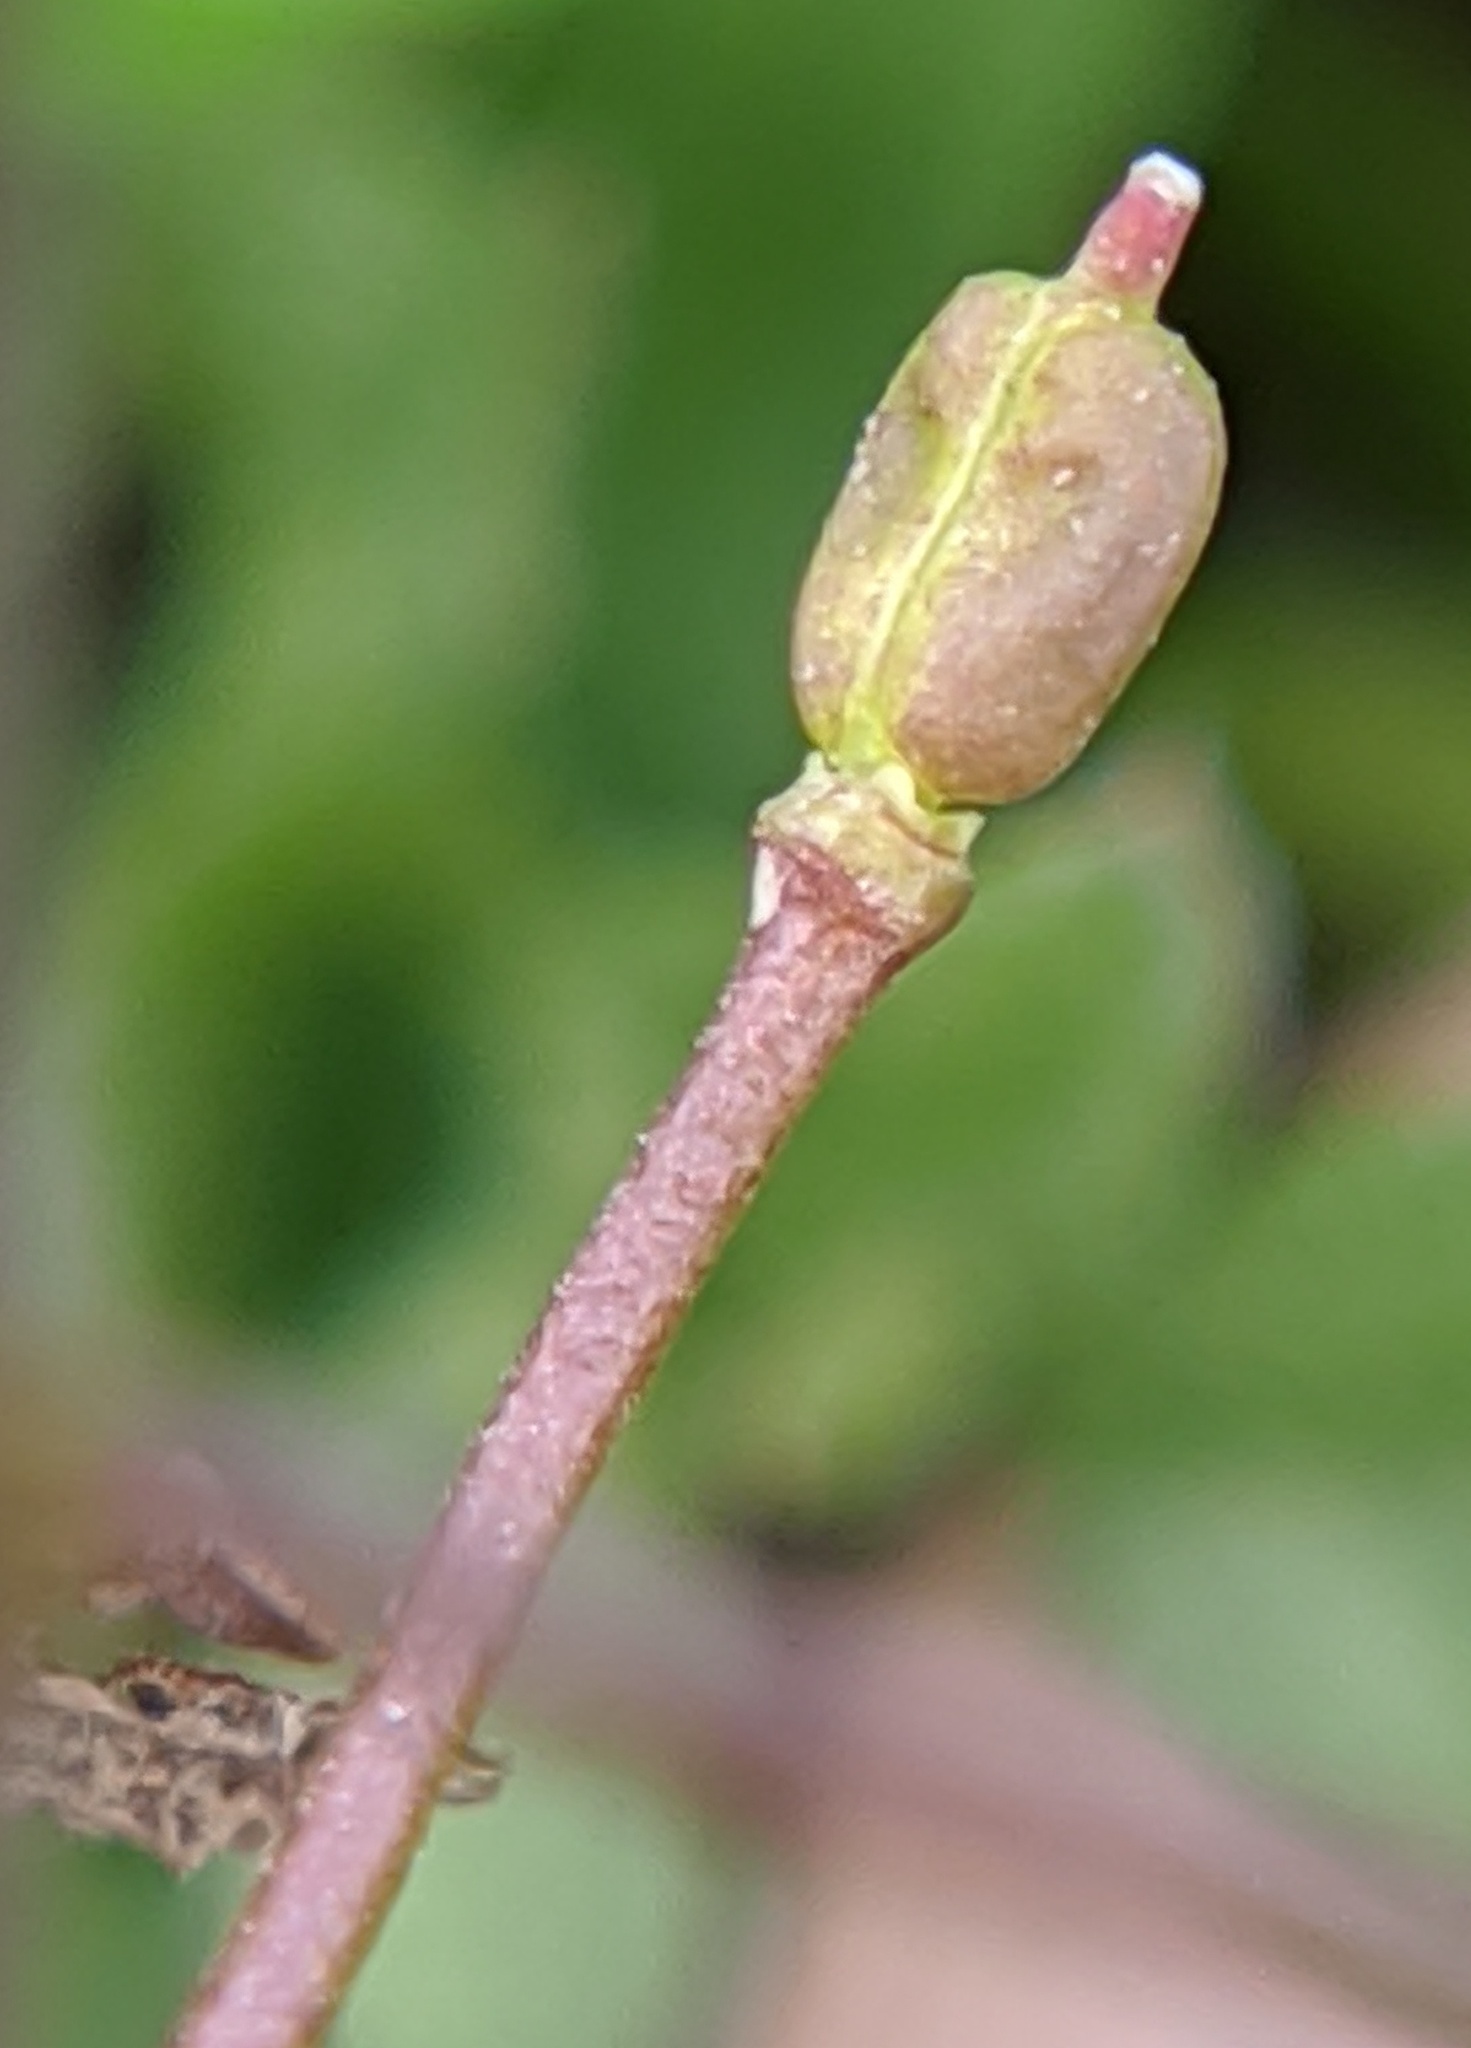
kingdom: Plantae
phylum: Tracheophyta
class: Magnoliopsida
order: Brassicales
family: Brassicaceae
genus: Capsella
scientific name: Capsella bursa-pastoris
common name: Shepherd's purse
